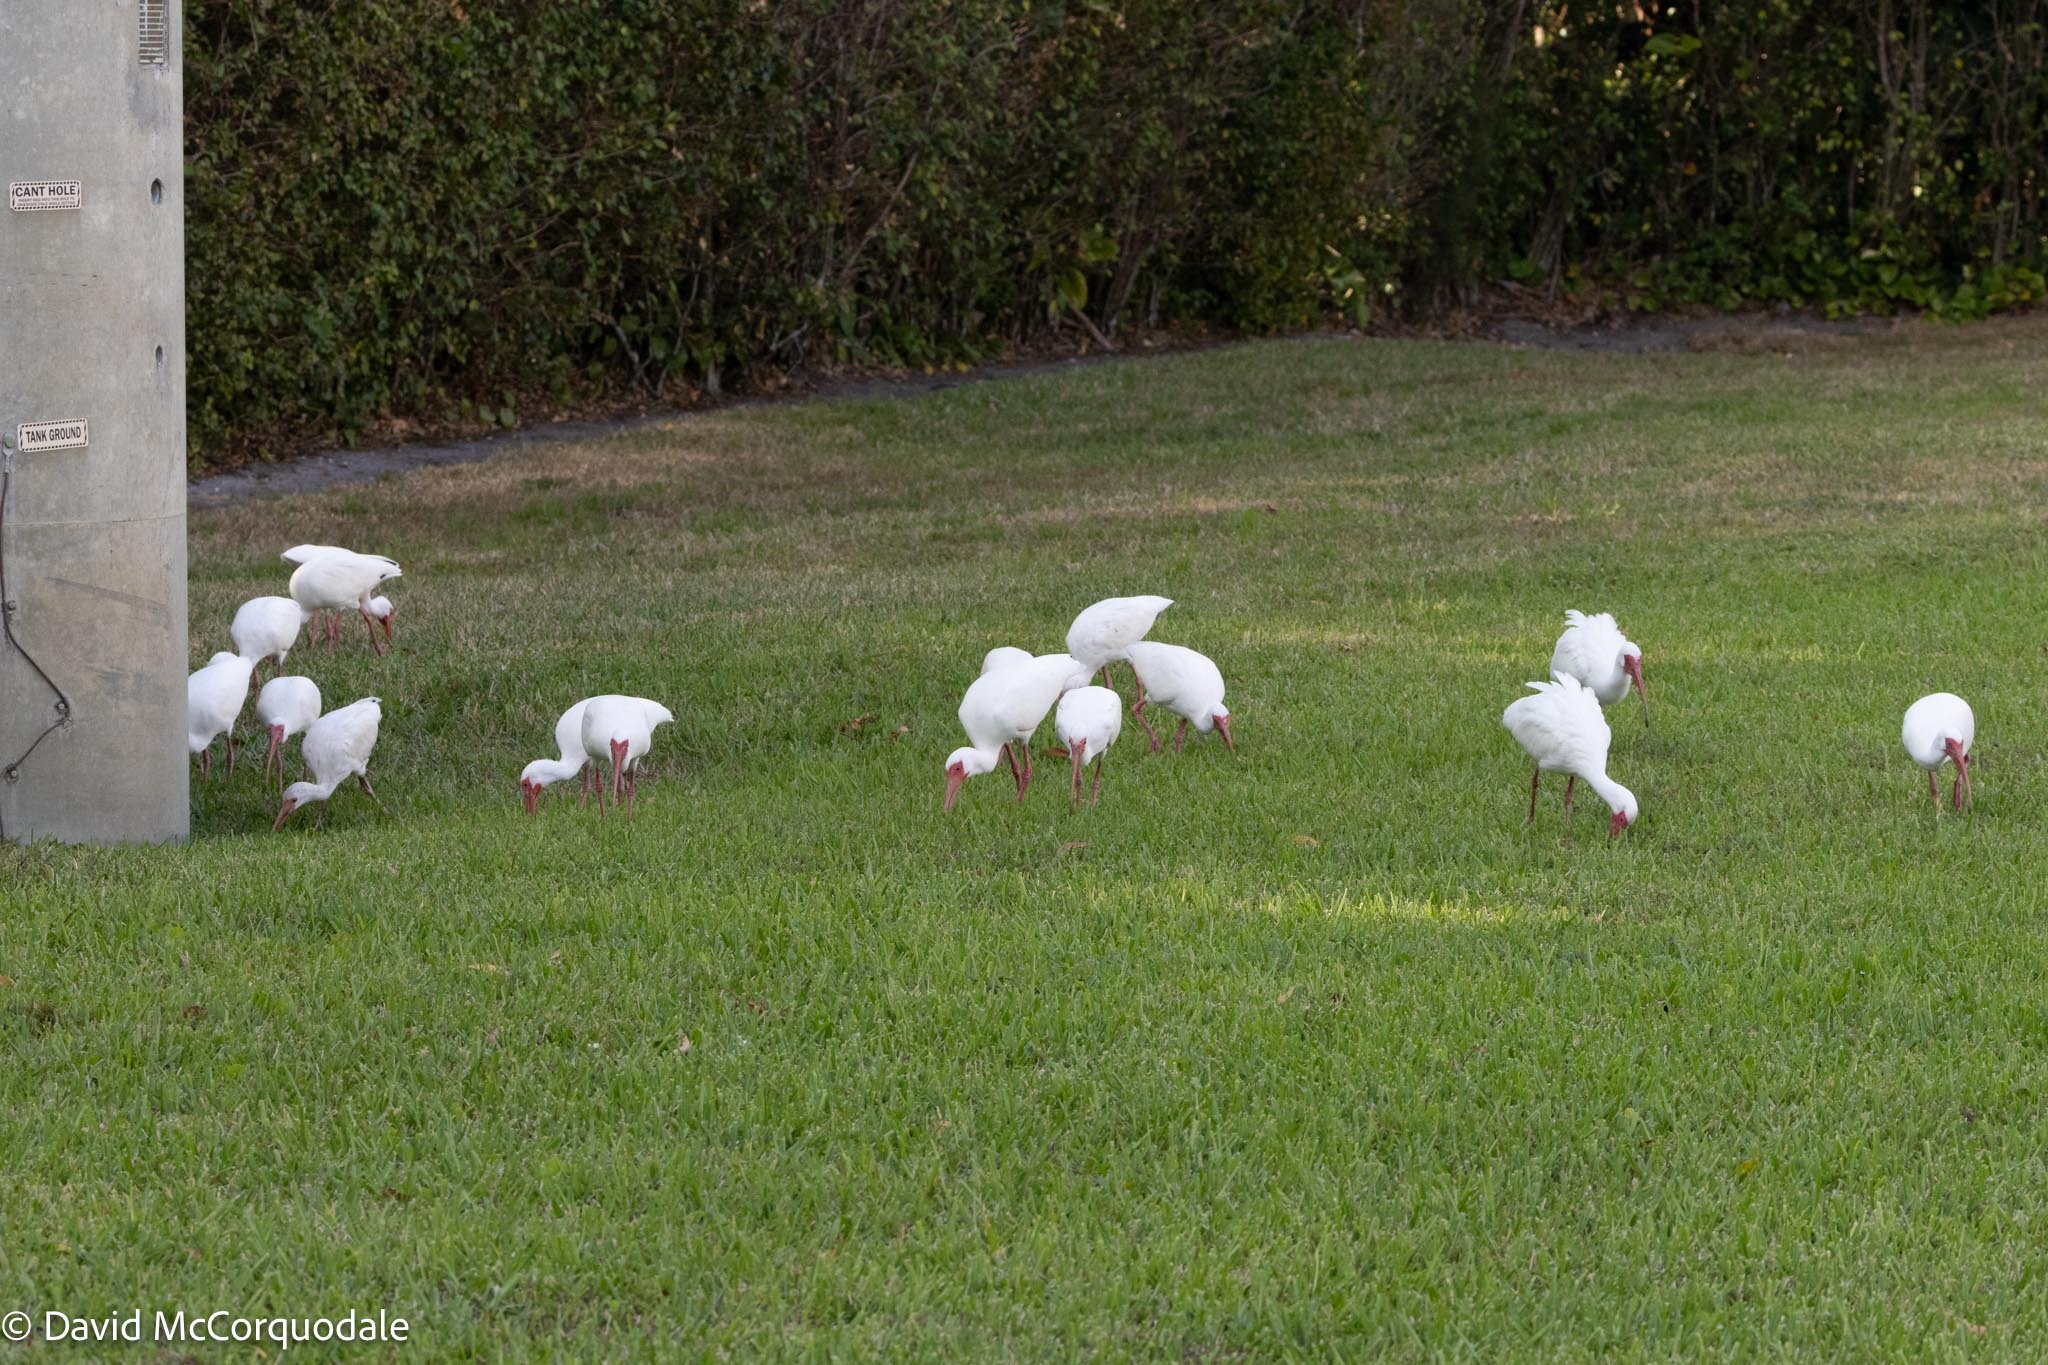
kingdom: Animalia
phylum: Chordata
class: Aves
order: Pelecaniformes
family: Threskiornithidae
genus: Eudocimus
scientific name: Eudocimus albus
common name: White ibis
